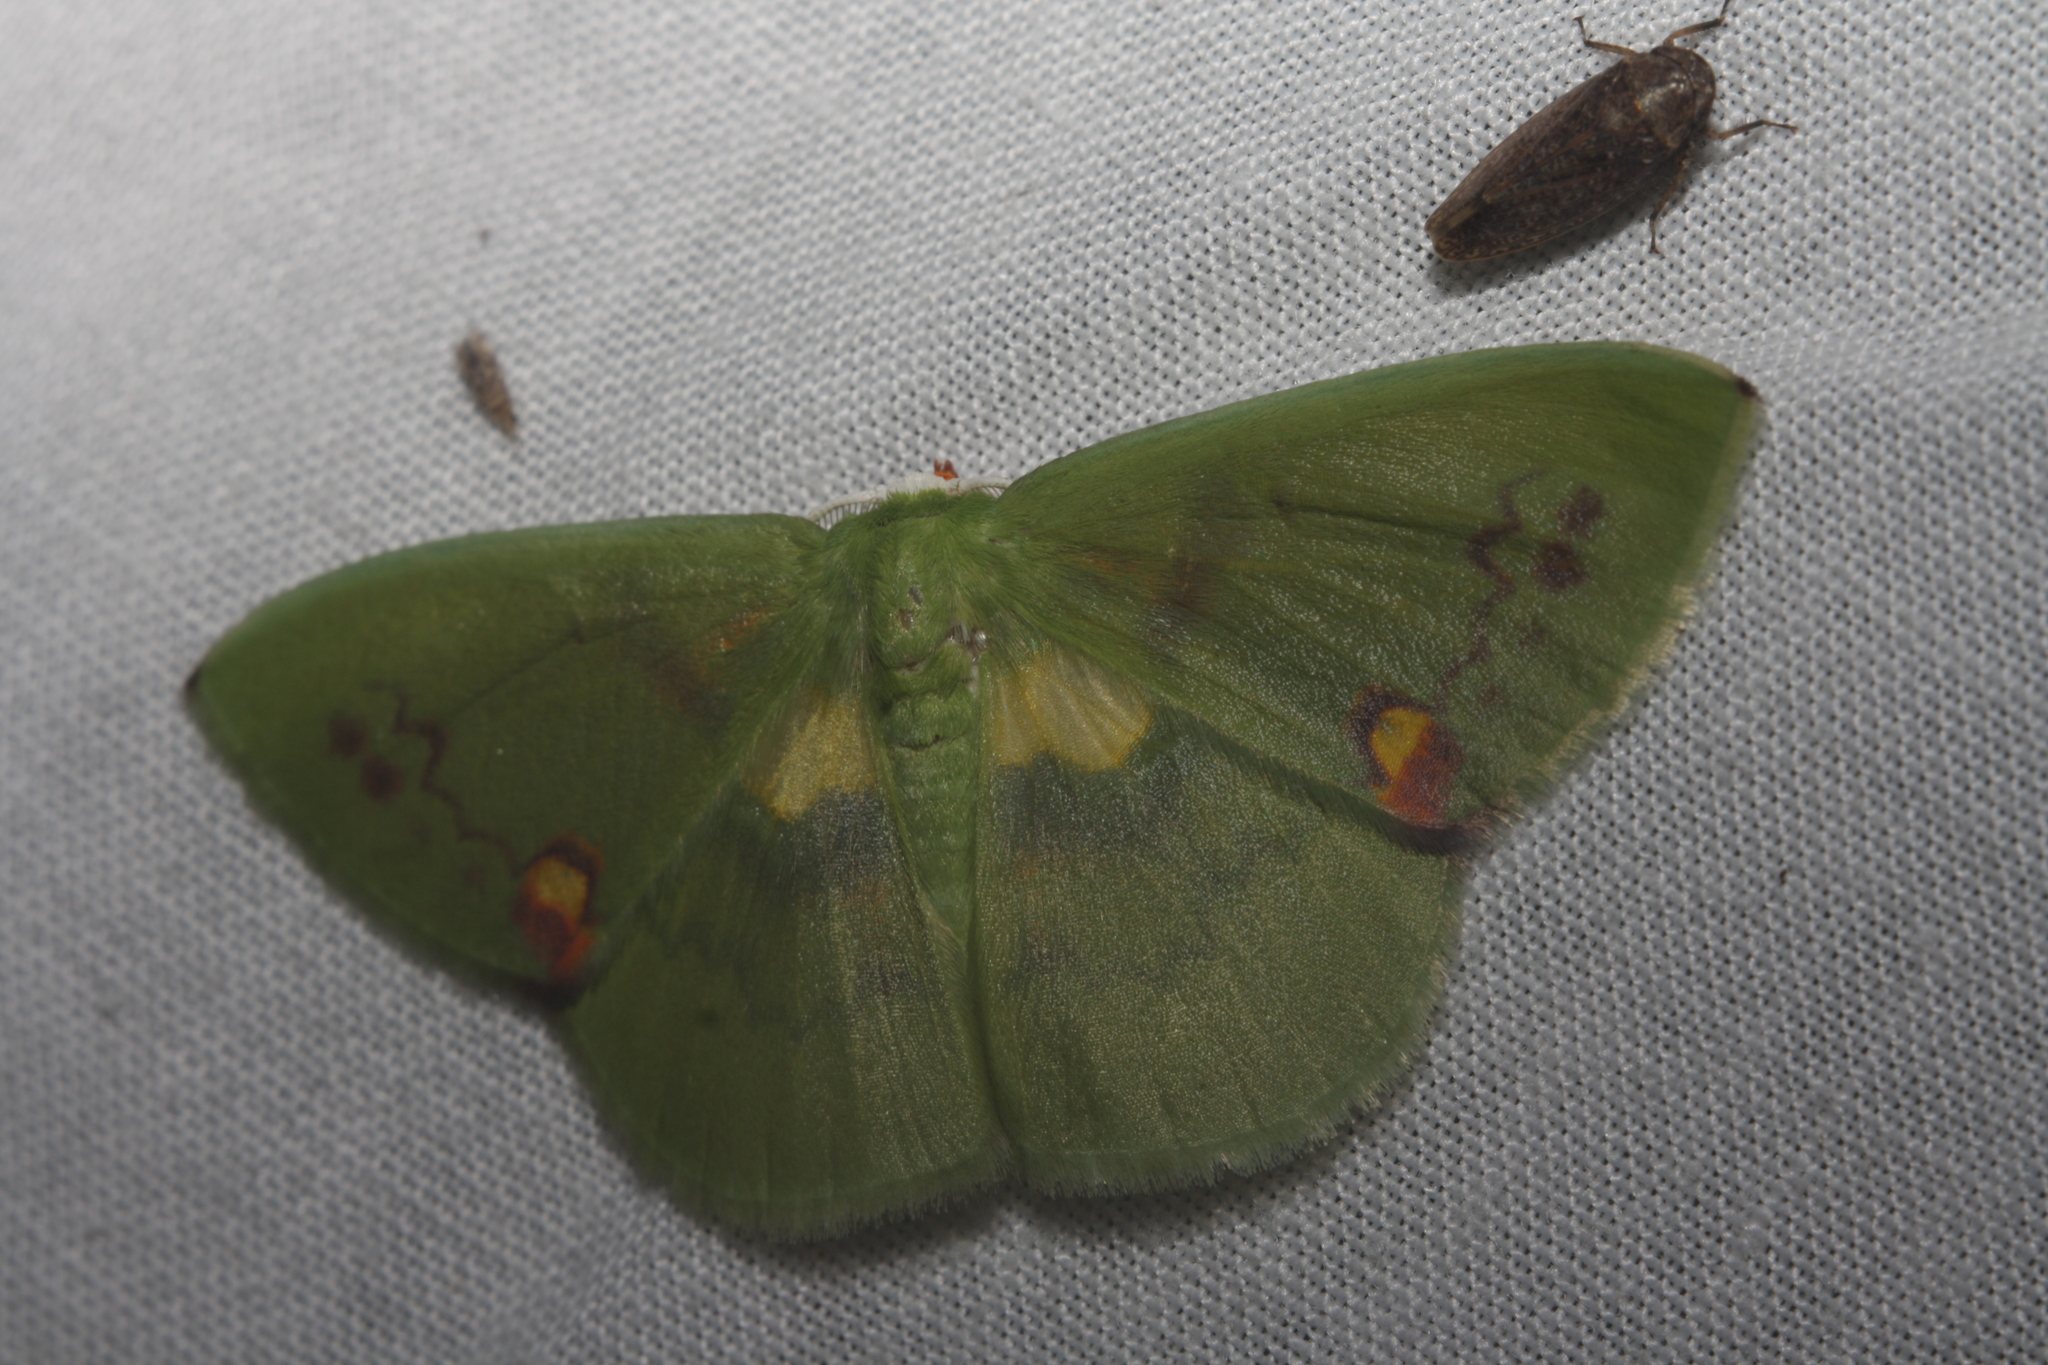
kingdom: Animalia
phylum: Arthropoda
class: Insecta
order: Lepidoptera
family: Geometridae
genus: Rhodochlora
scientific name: Rhodochlora brunneipalpis
